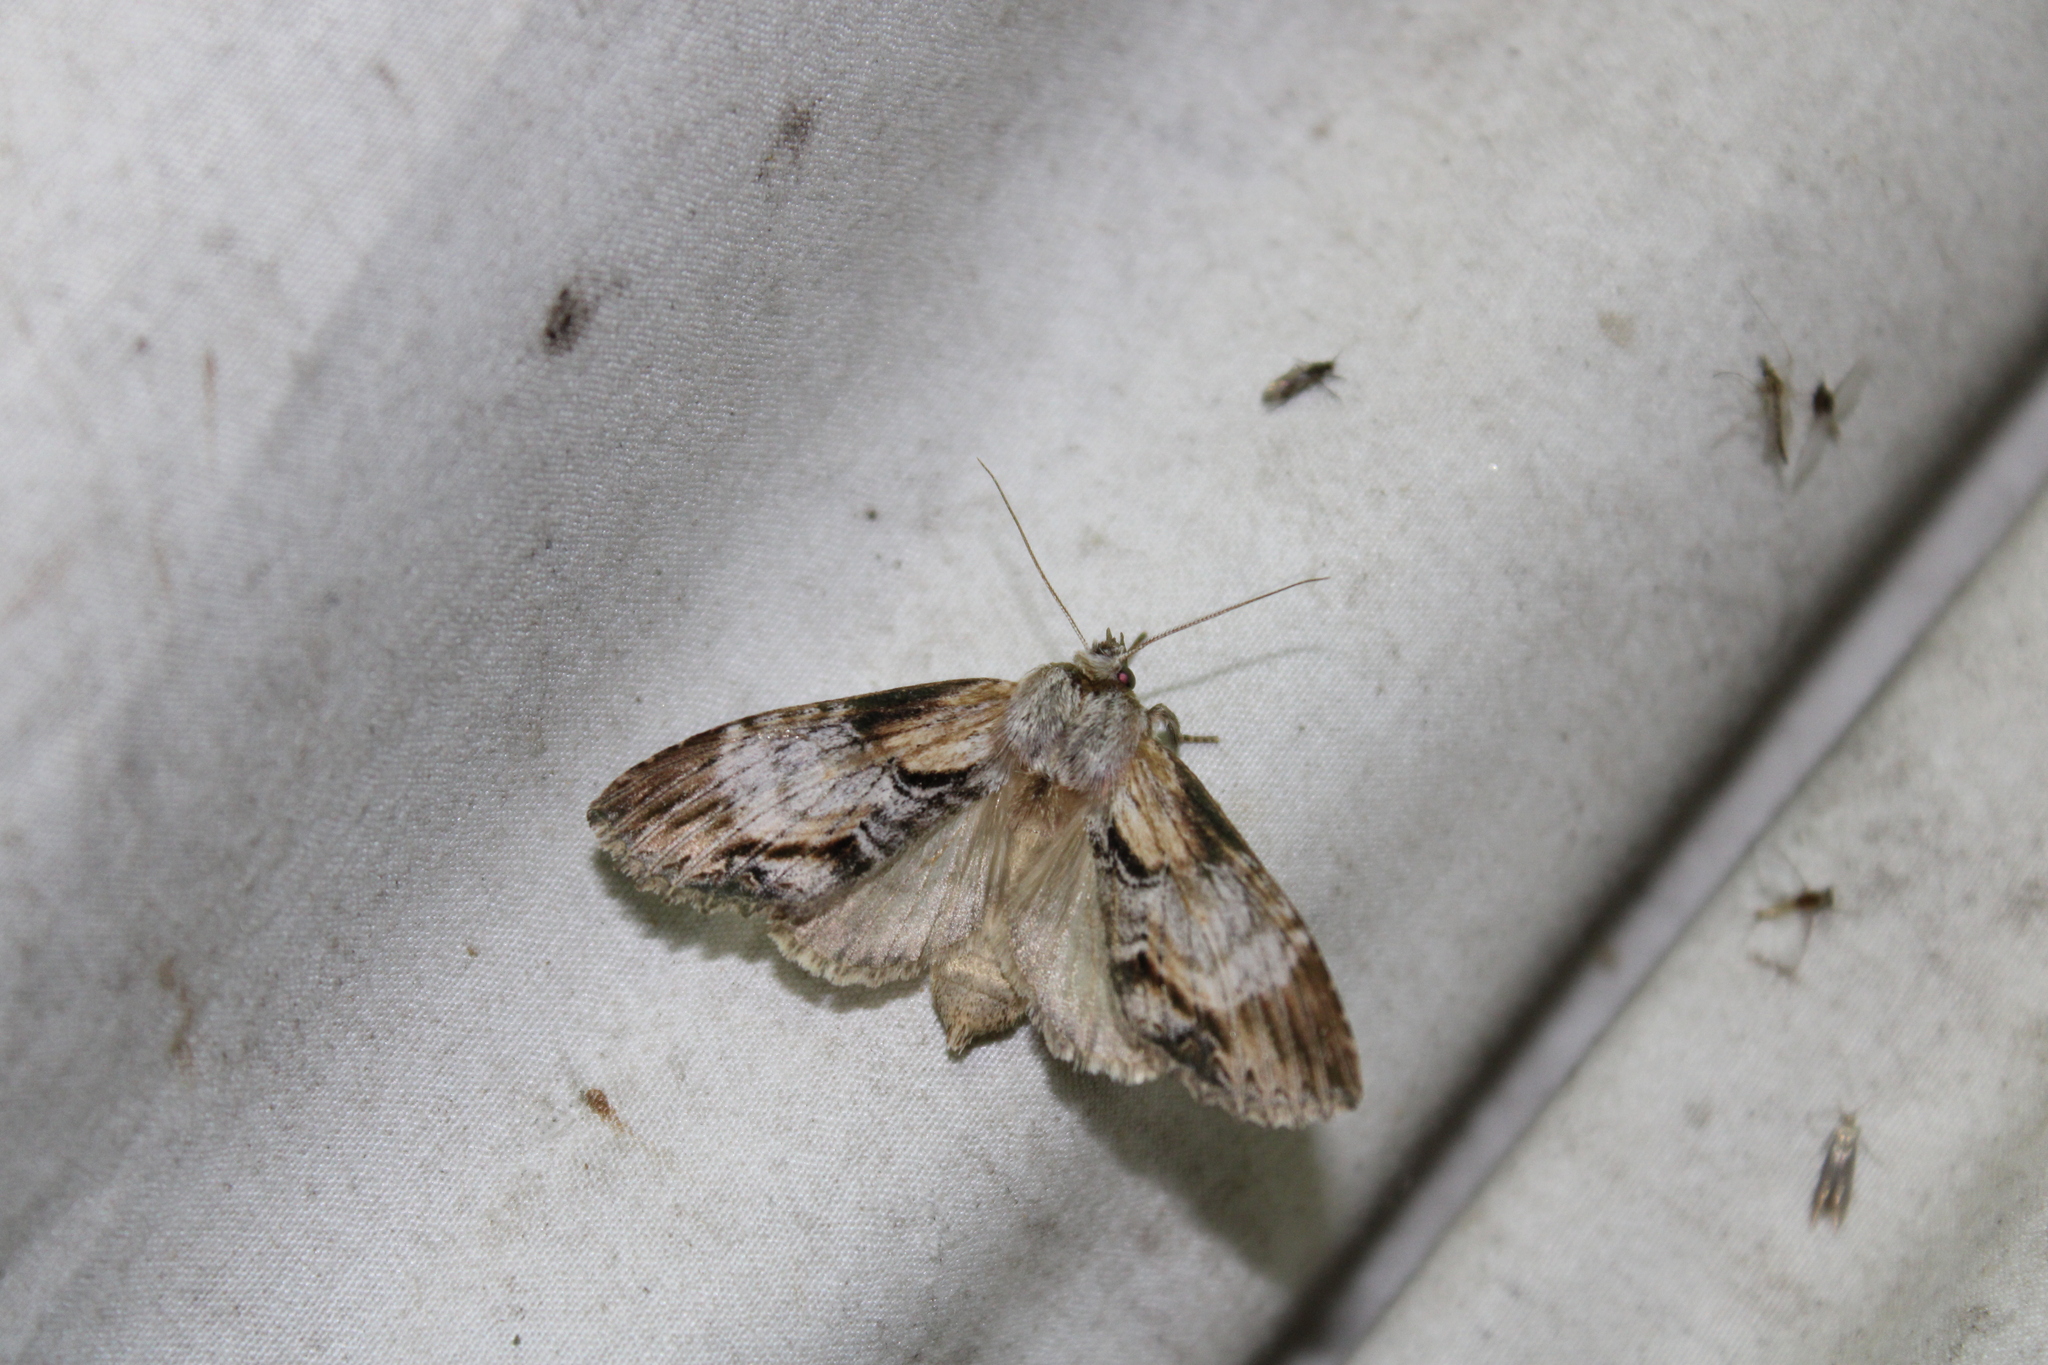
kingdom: Animalia
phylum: Arthropoda
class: Insecta
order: Lepidoptera
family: Notodontidae
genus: Dasylophia
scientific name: Dasylophia thyatiroides
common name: Gray-patched prominent
